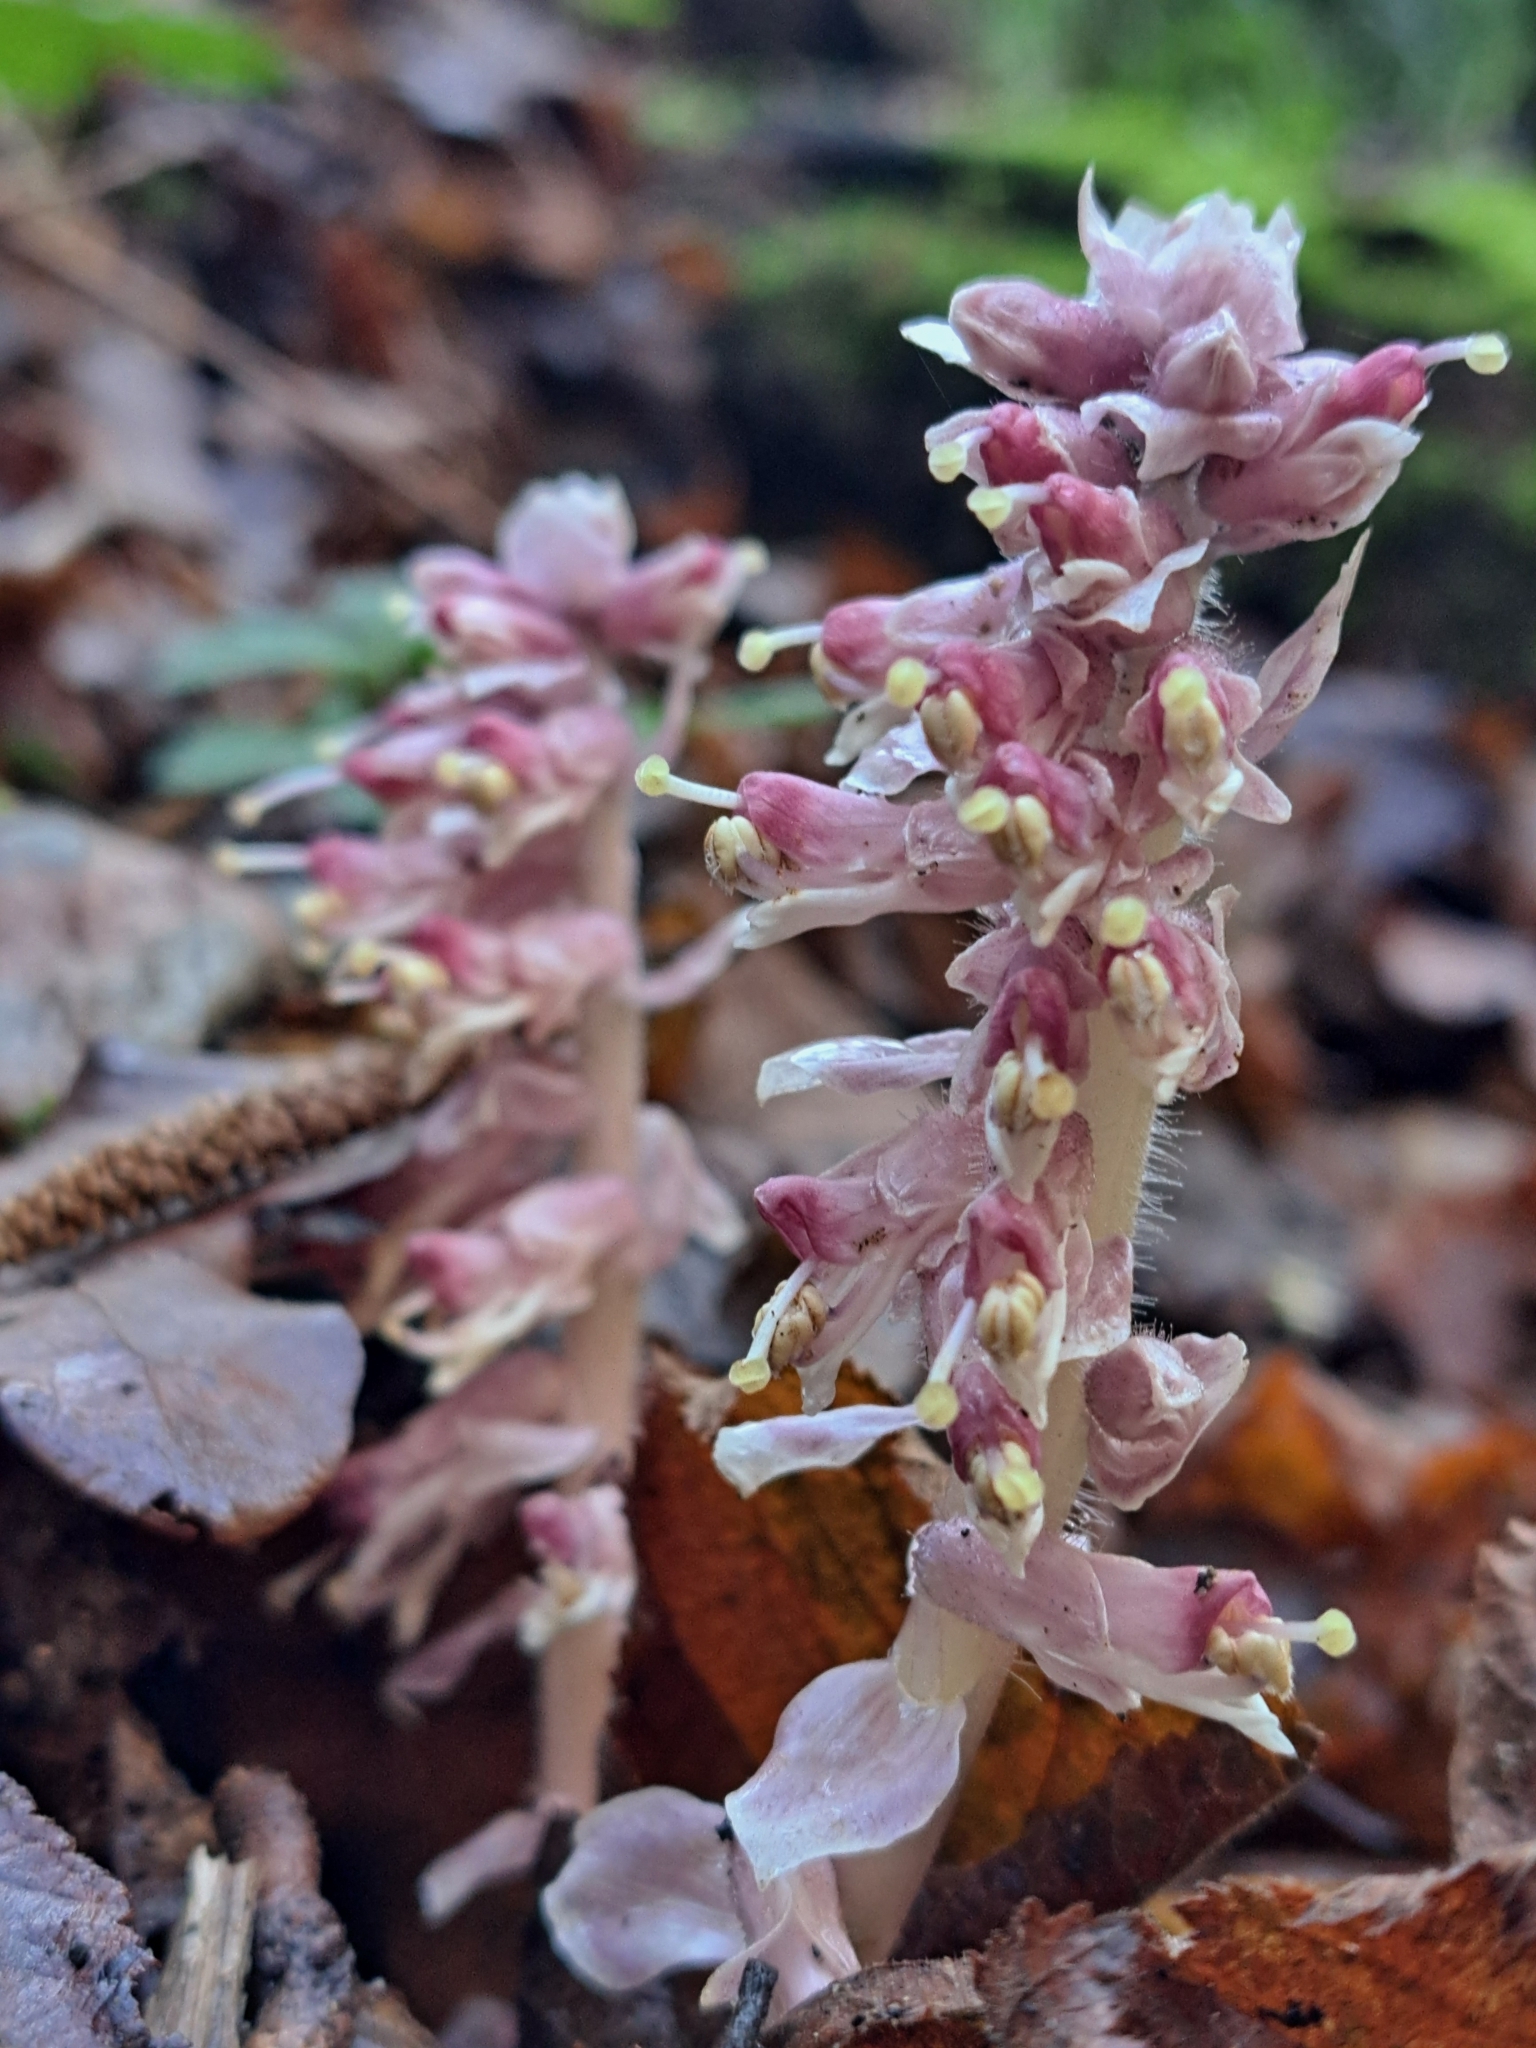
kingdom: Plantae
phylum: Tracheophyta
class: Magnoliopsida
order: Lamiales
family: Orobanchaceae
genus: Lathraea
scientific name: Lathraea squamaria
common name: Toothwort
